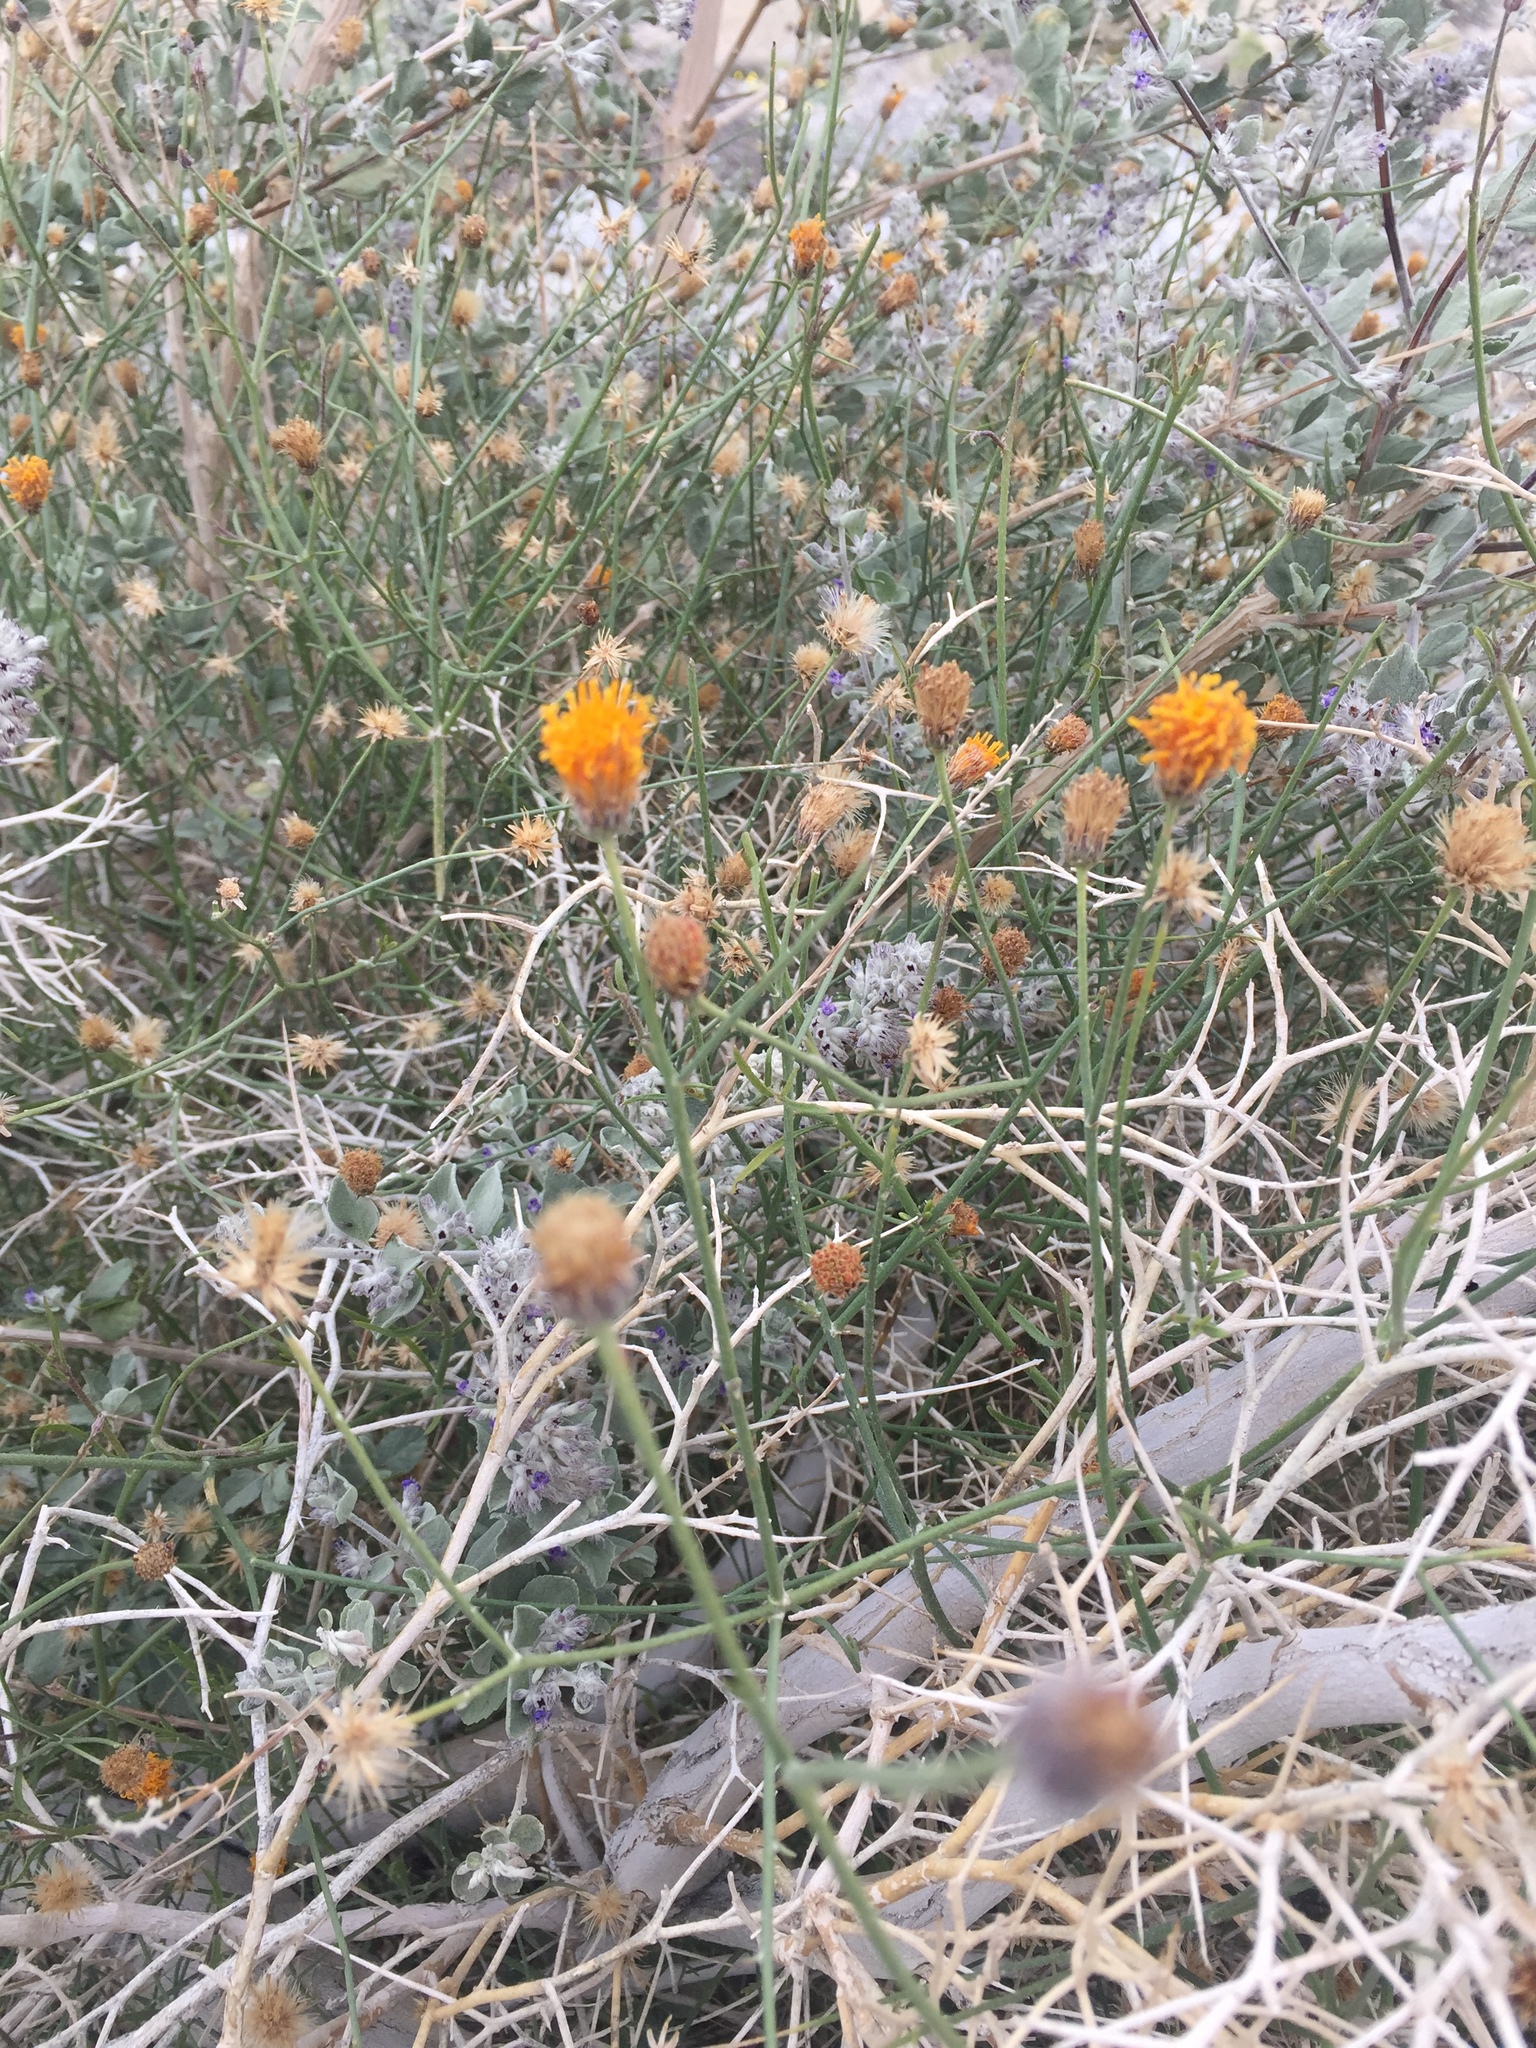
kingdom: Plantae
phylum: Tracheophyta
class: Magnoliopsida
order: Asterales
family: Asteraceae
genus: Bebbia
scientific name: Bebbia juncea
